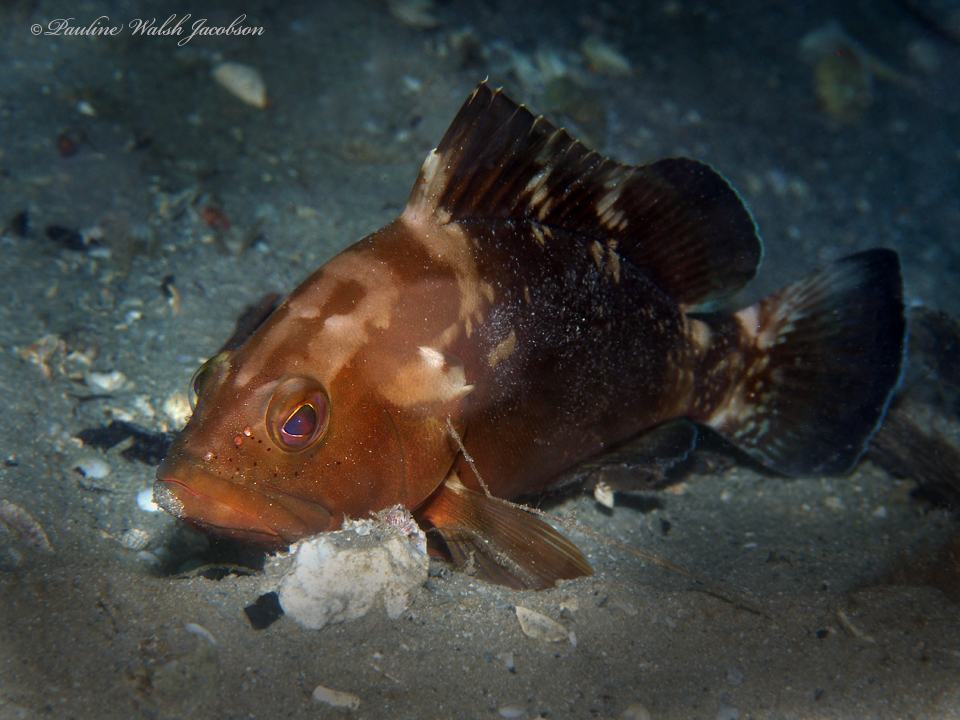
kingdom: Animalia
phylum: Chordata
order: Perciformes
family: Serranidae
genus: Epinephelus
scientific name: Epinephelus morio
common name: Red grouper
